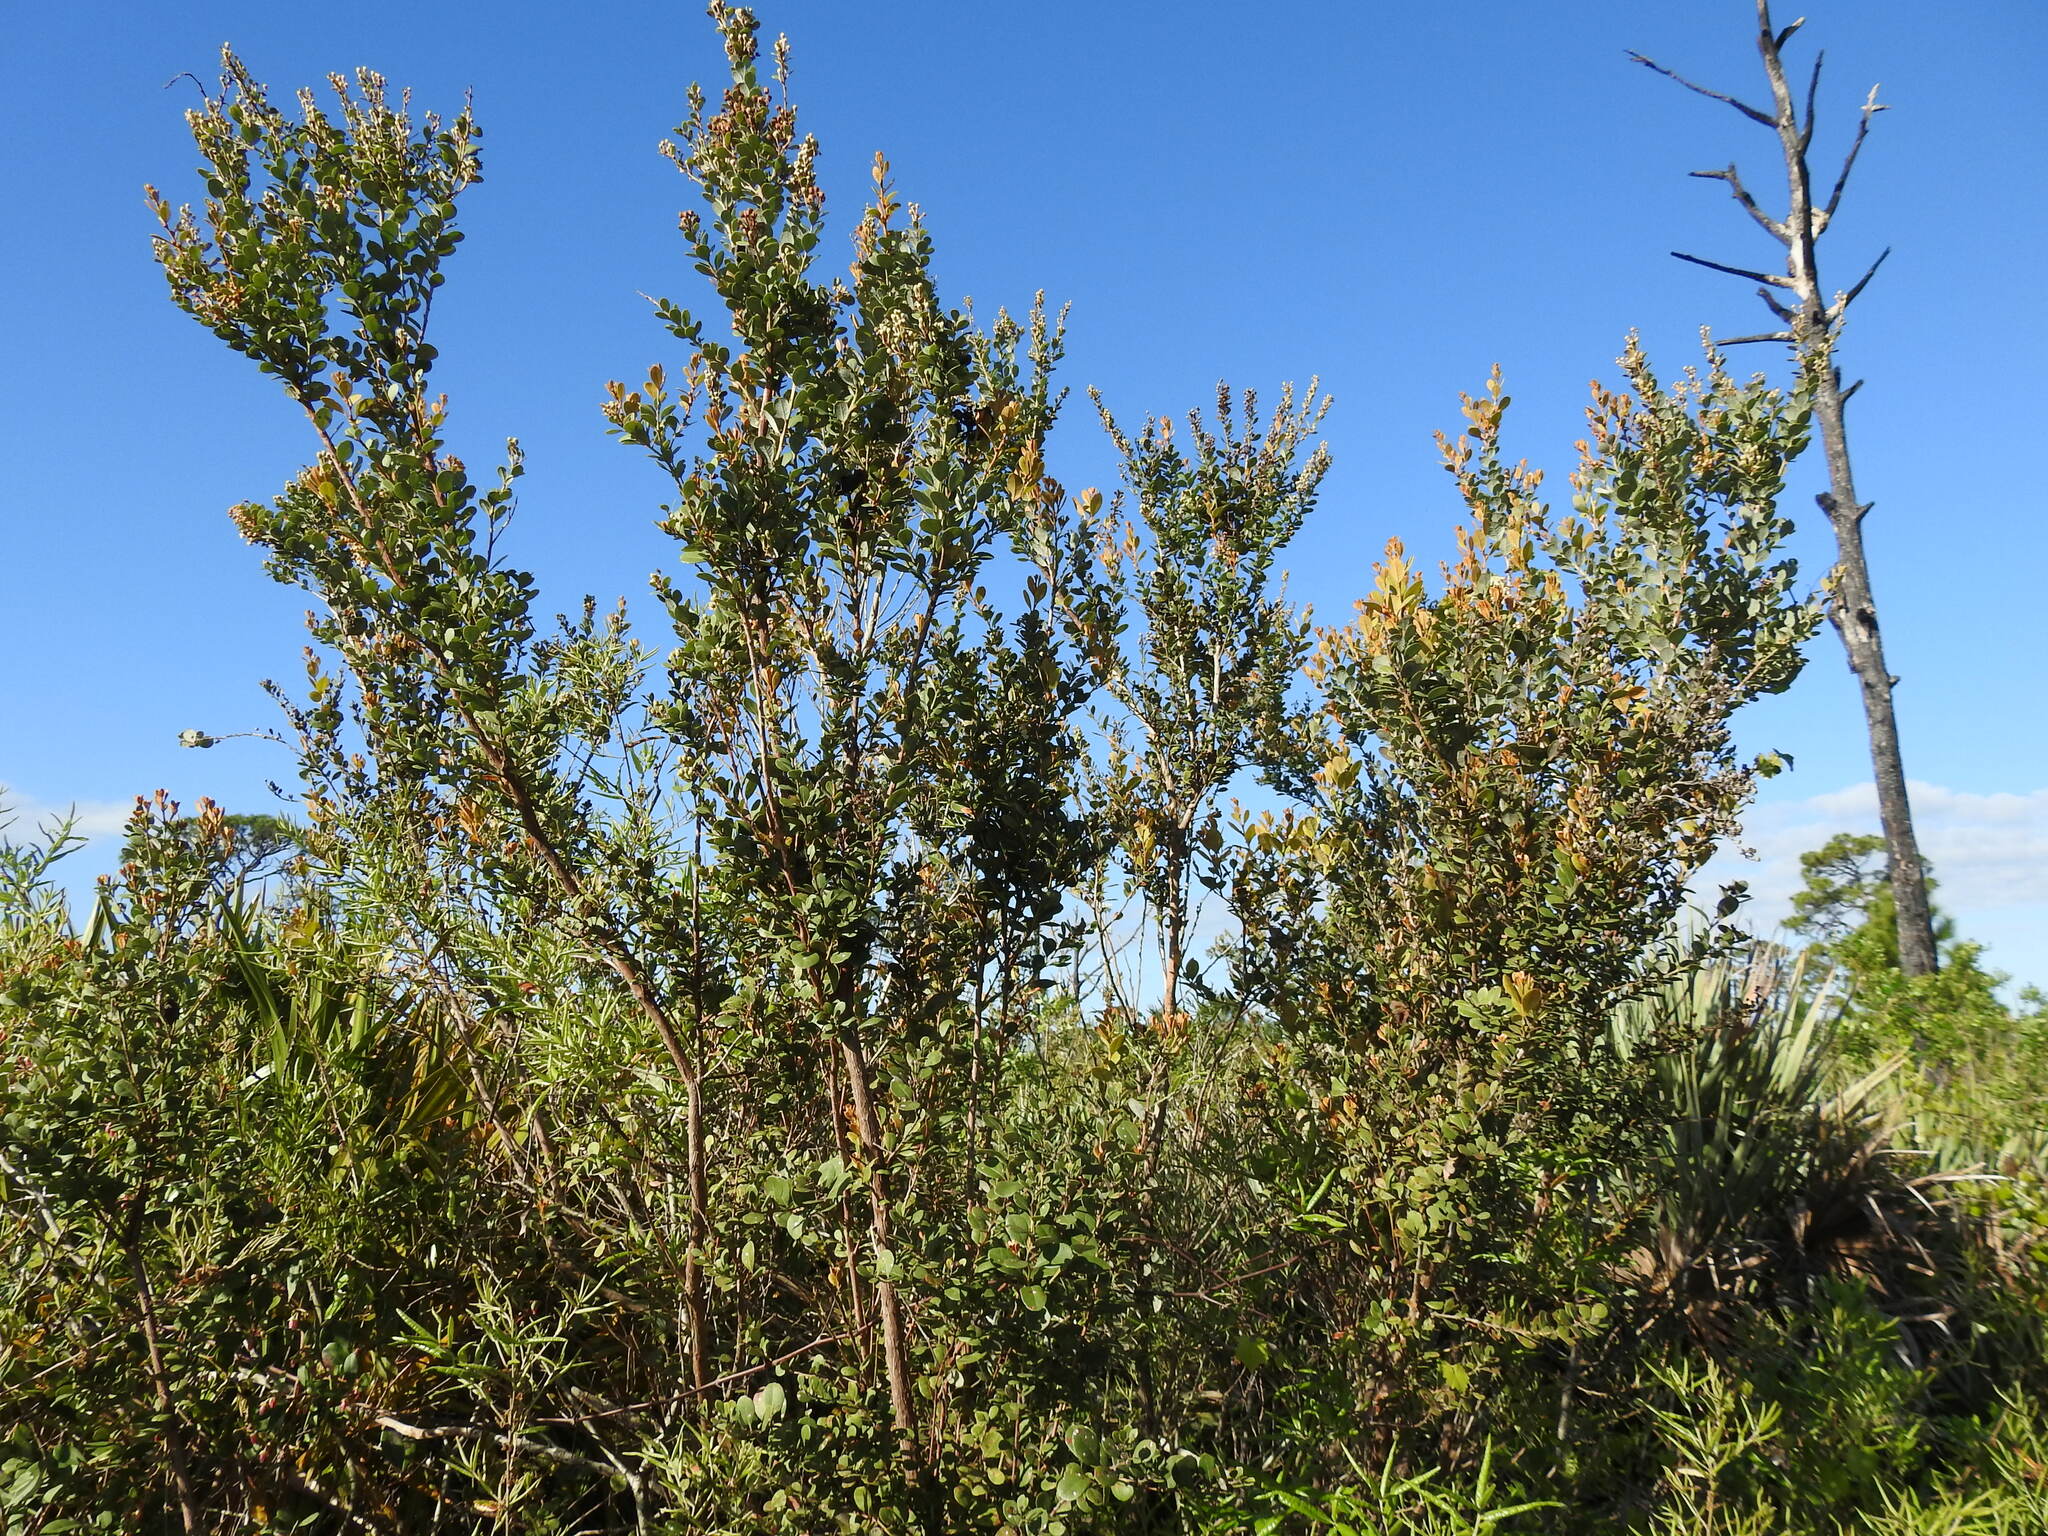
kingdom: Plantae
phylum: Tracheophyta
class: Magnoliopsida
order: Ericales
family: Ericaceae
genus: Lyonia
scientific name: Lyonia fruticosa
